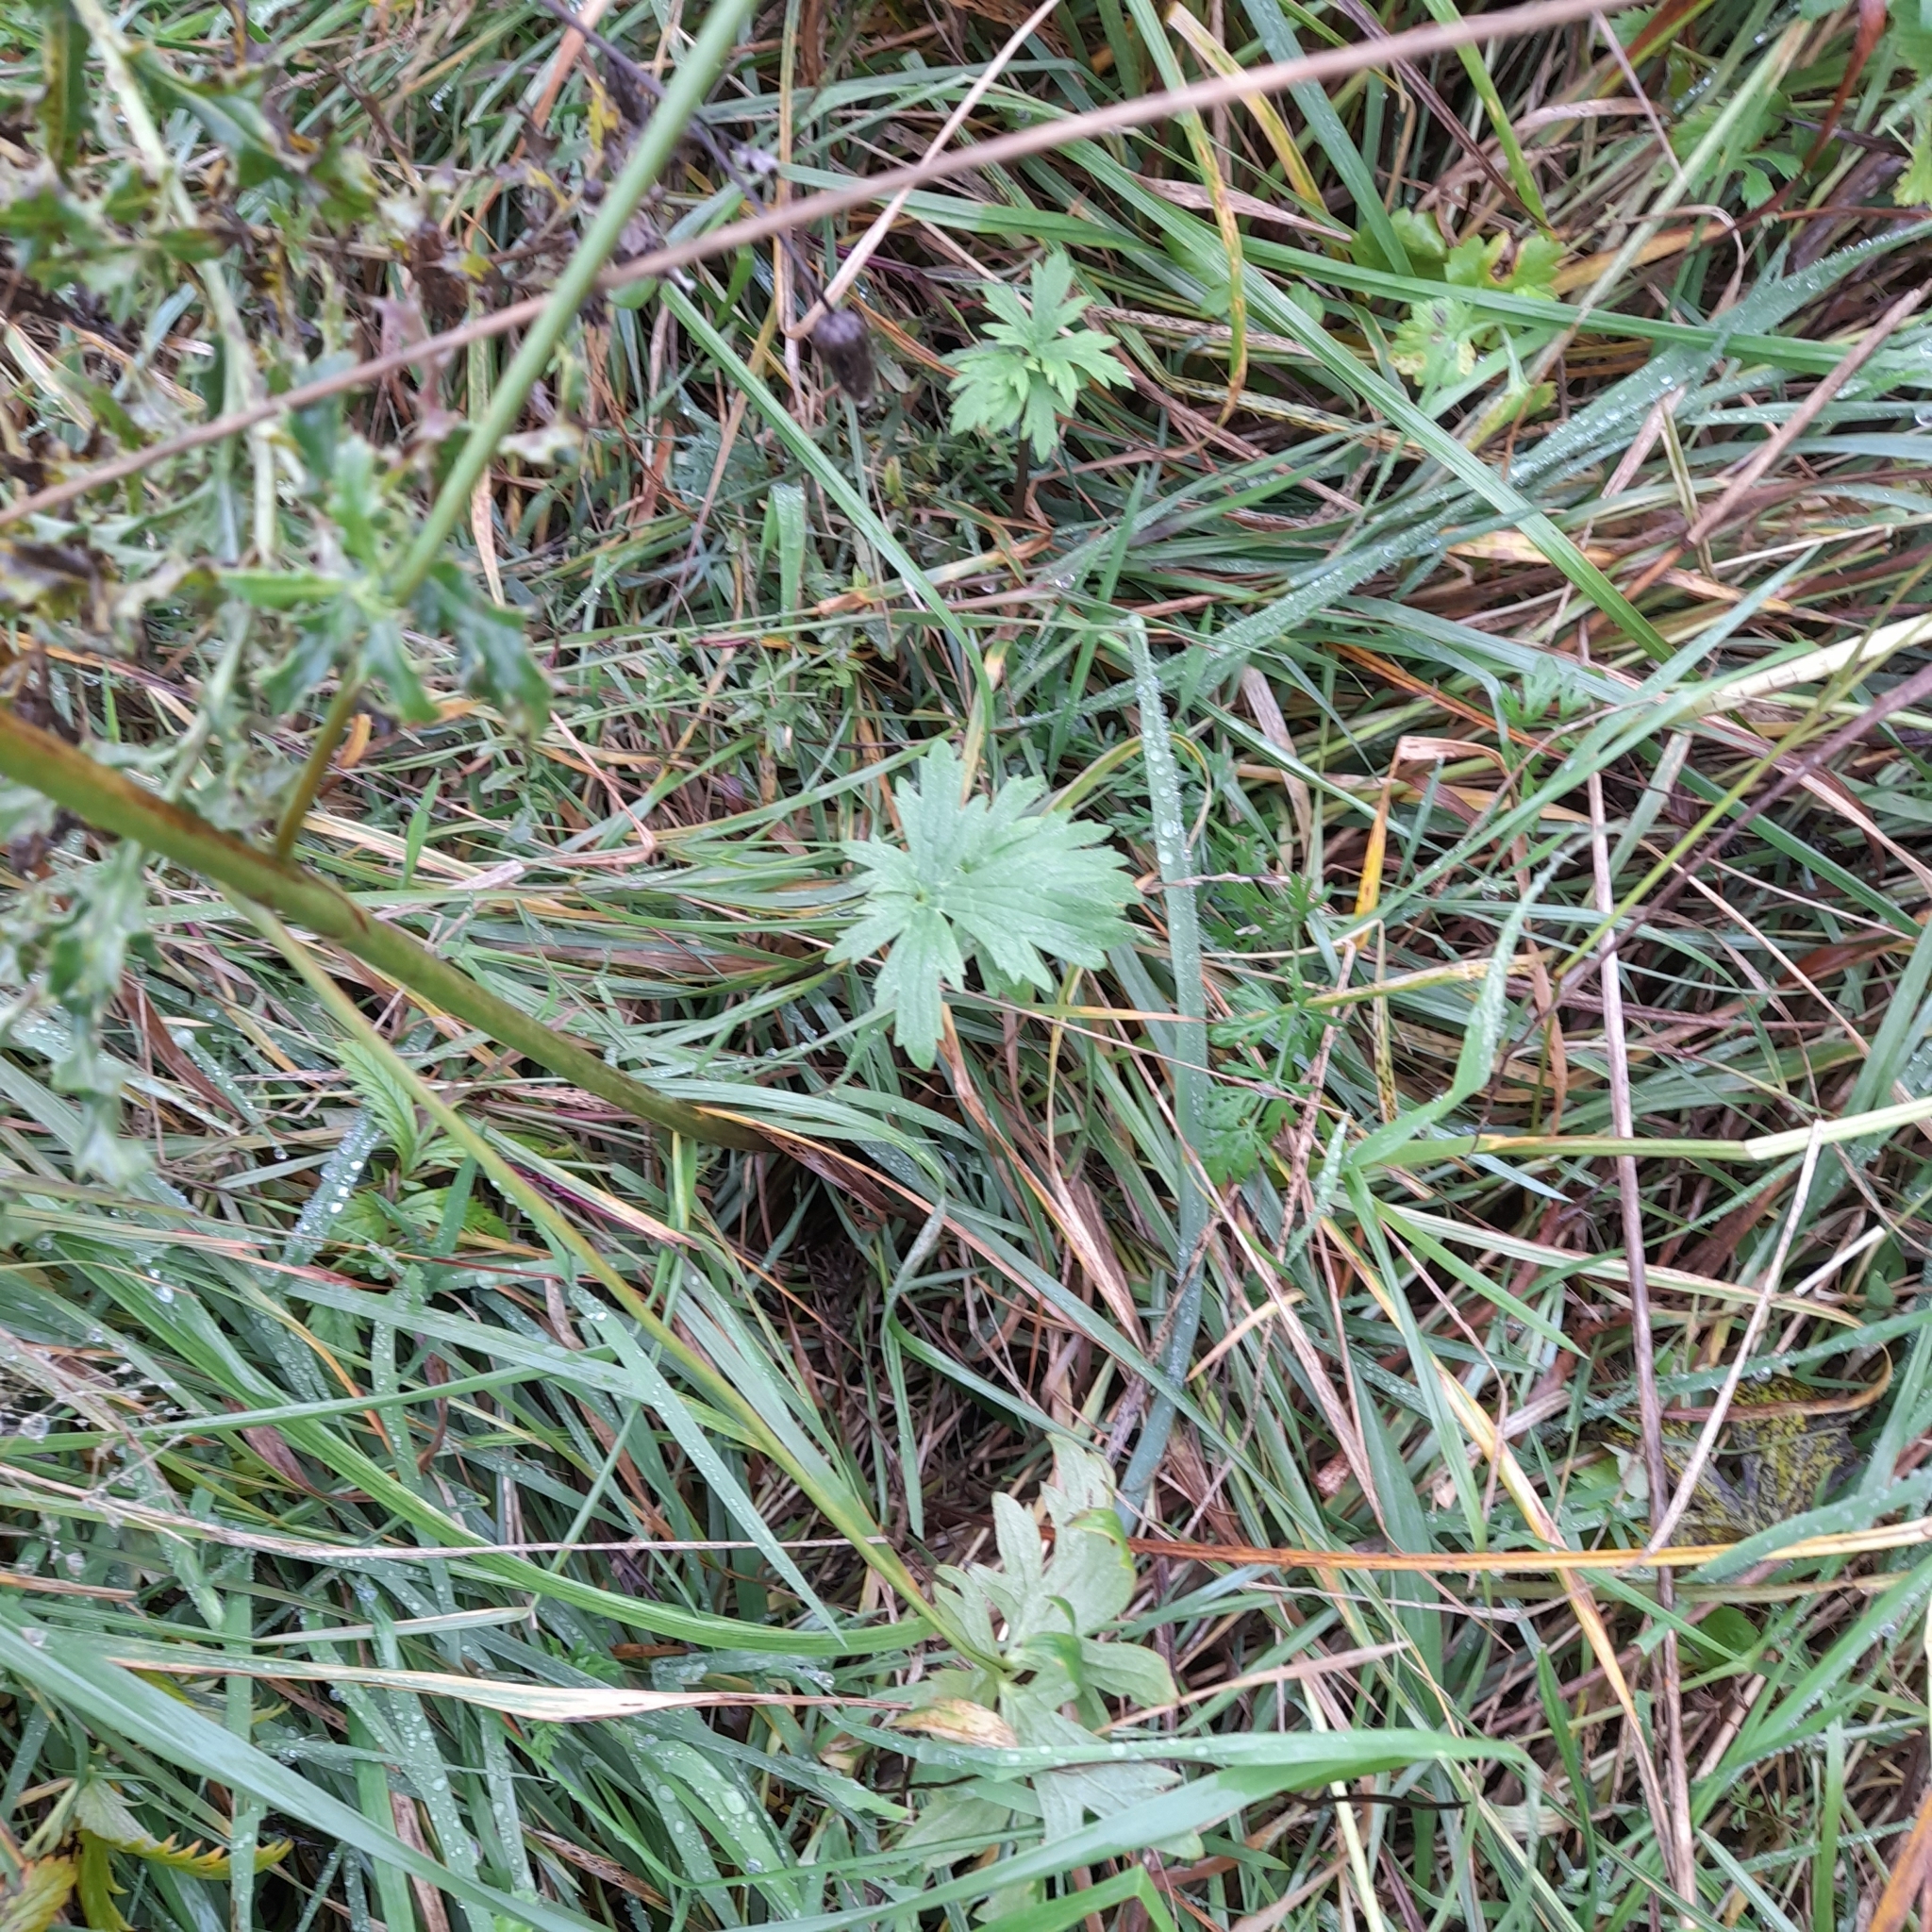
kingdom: Plantae
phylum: Tracheophyta
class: Magnoliopsida
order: Ranunculales
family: Ranunculaceae
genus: Ranunculus
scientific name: Ranunculus acris
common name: Meadow buttercup
